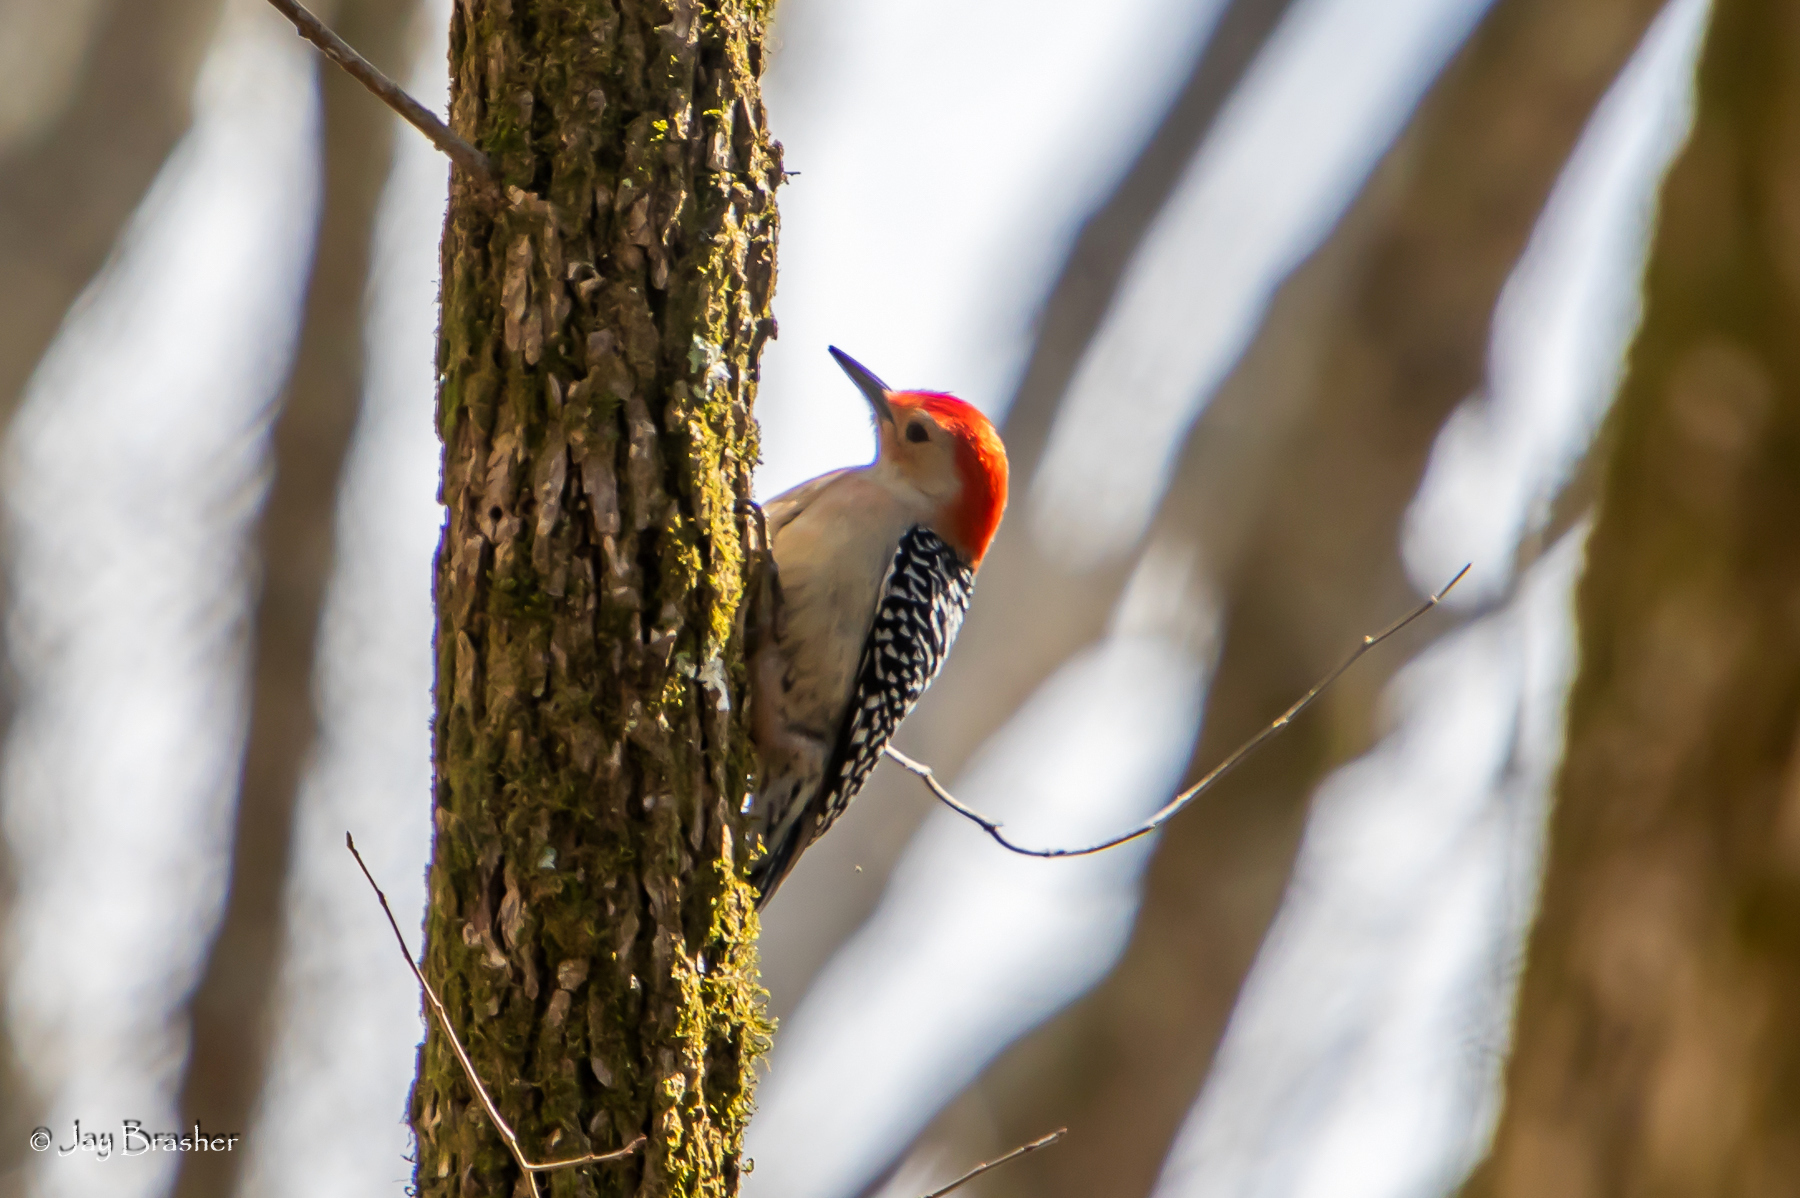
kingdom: Animalia
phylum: Chordata
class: Aves
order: Piciformes
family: Picidae
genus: Melanerpes
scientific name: Melanerpes carolinus
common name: Red-bellied woodpecker
